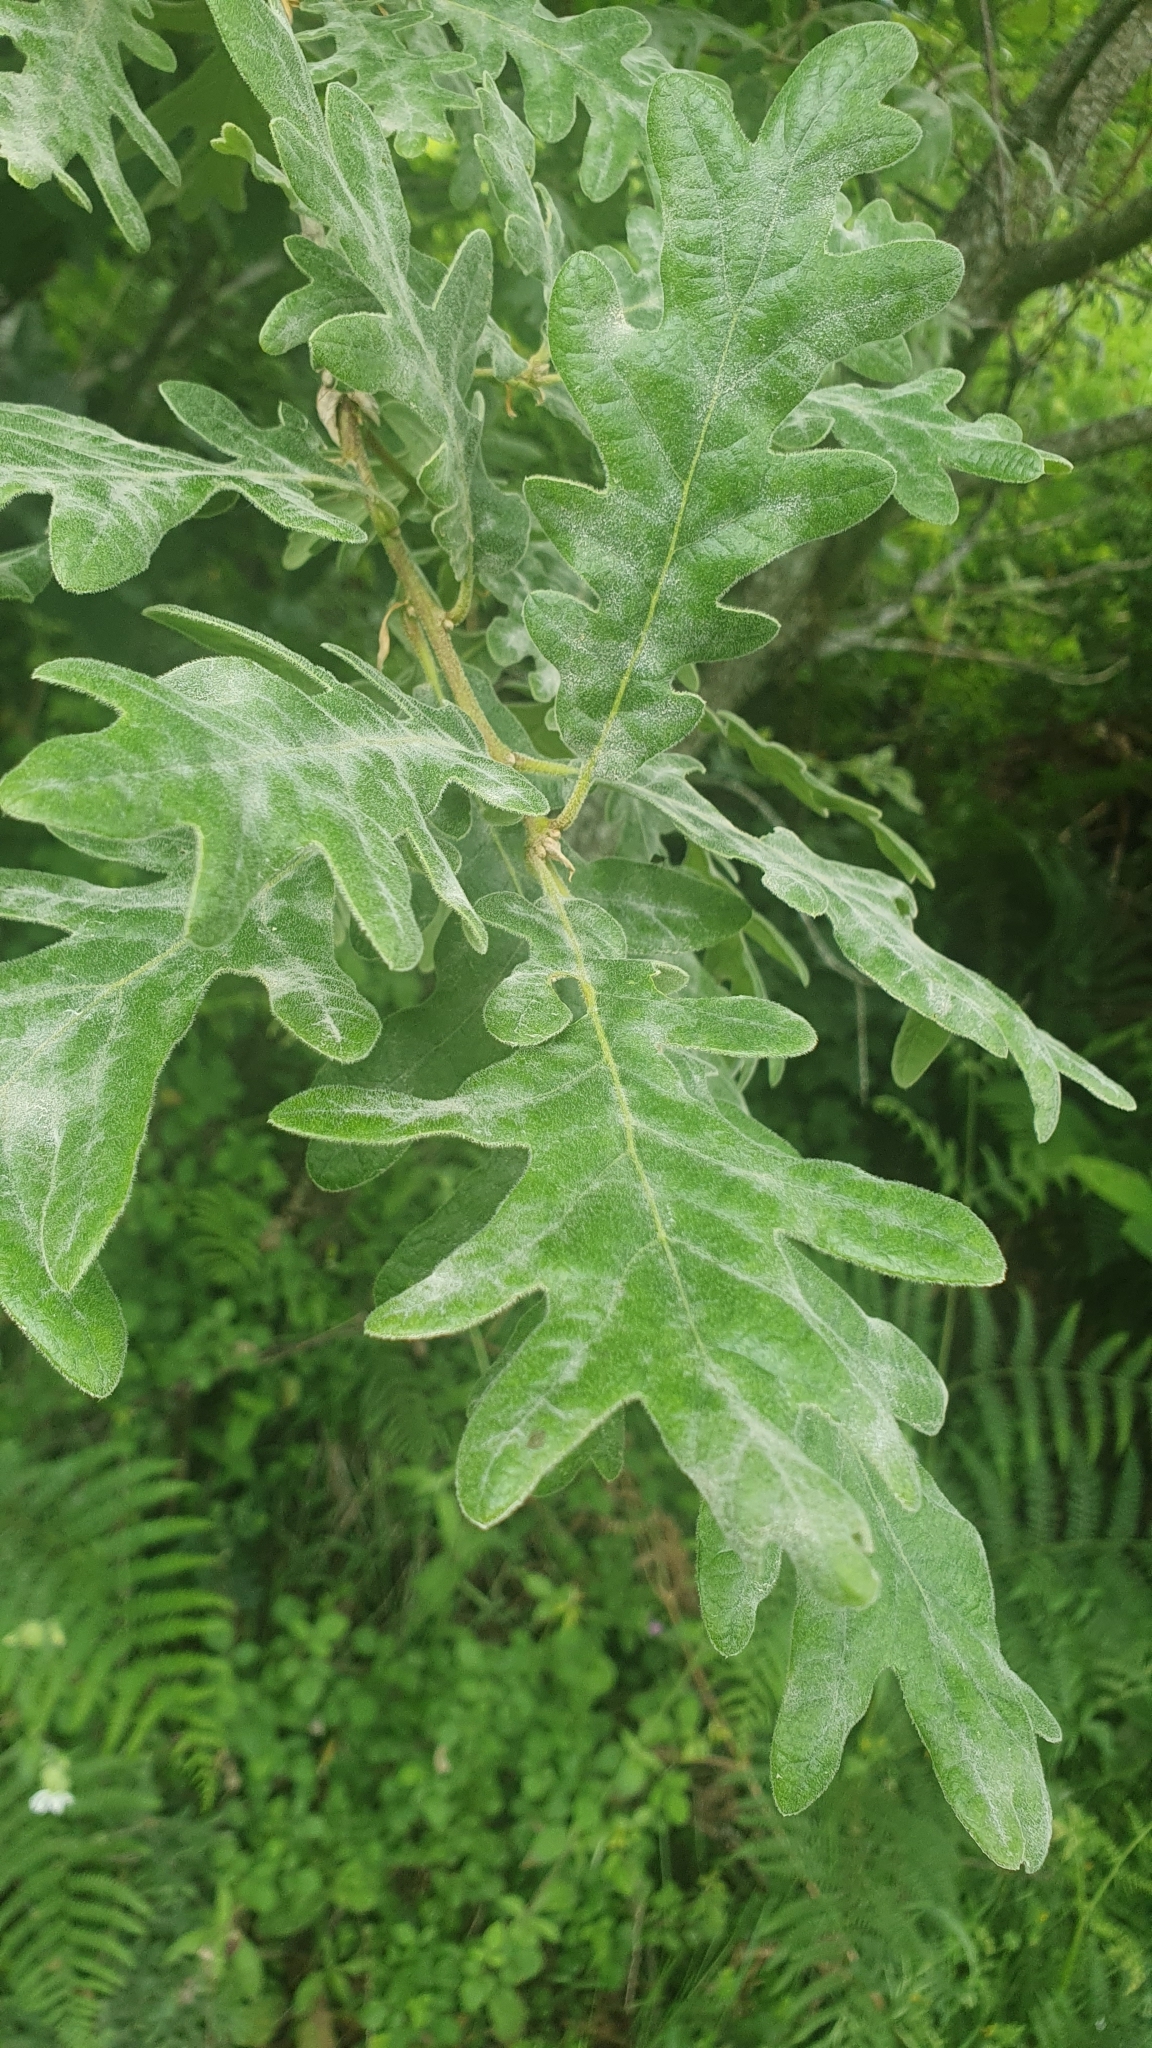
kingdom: Plantae
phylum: Tracheophyta
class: Magnoliopsida
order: Fagales
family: Fagaceae
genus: Quercus
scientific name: Quercus pyrenaica
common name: Pyrenean oak
